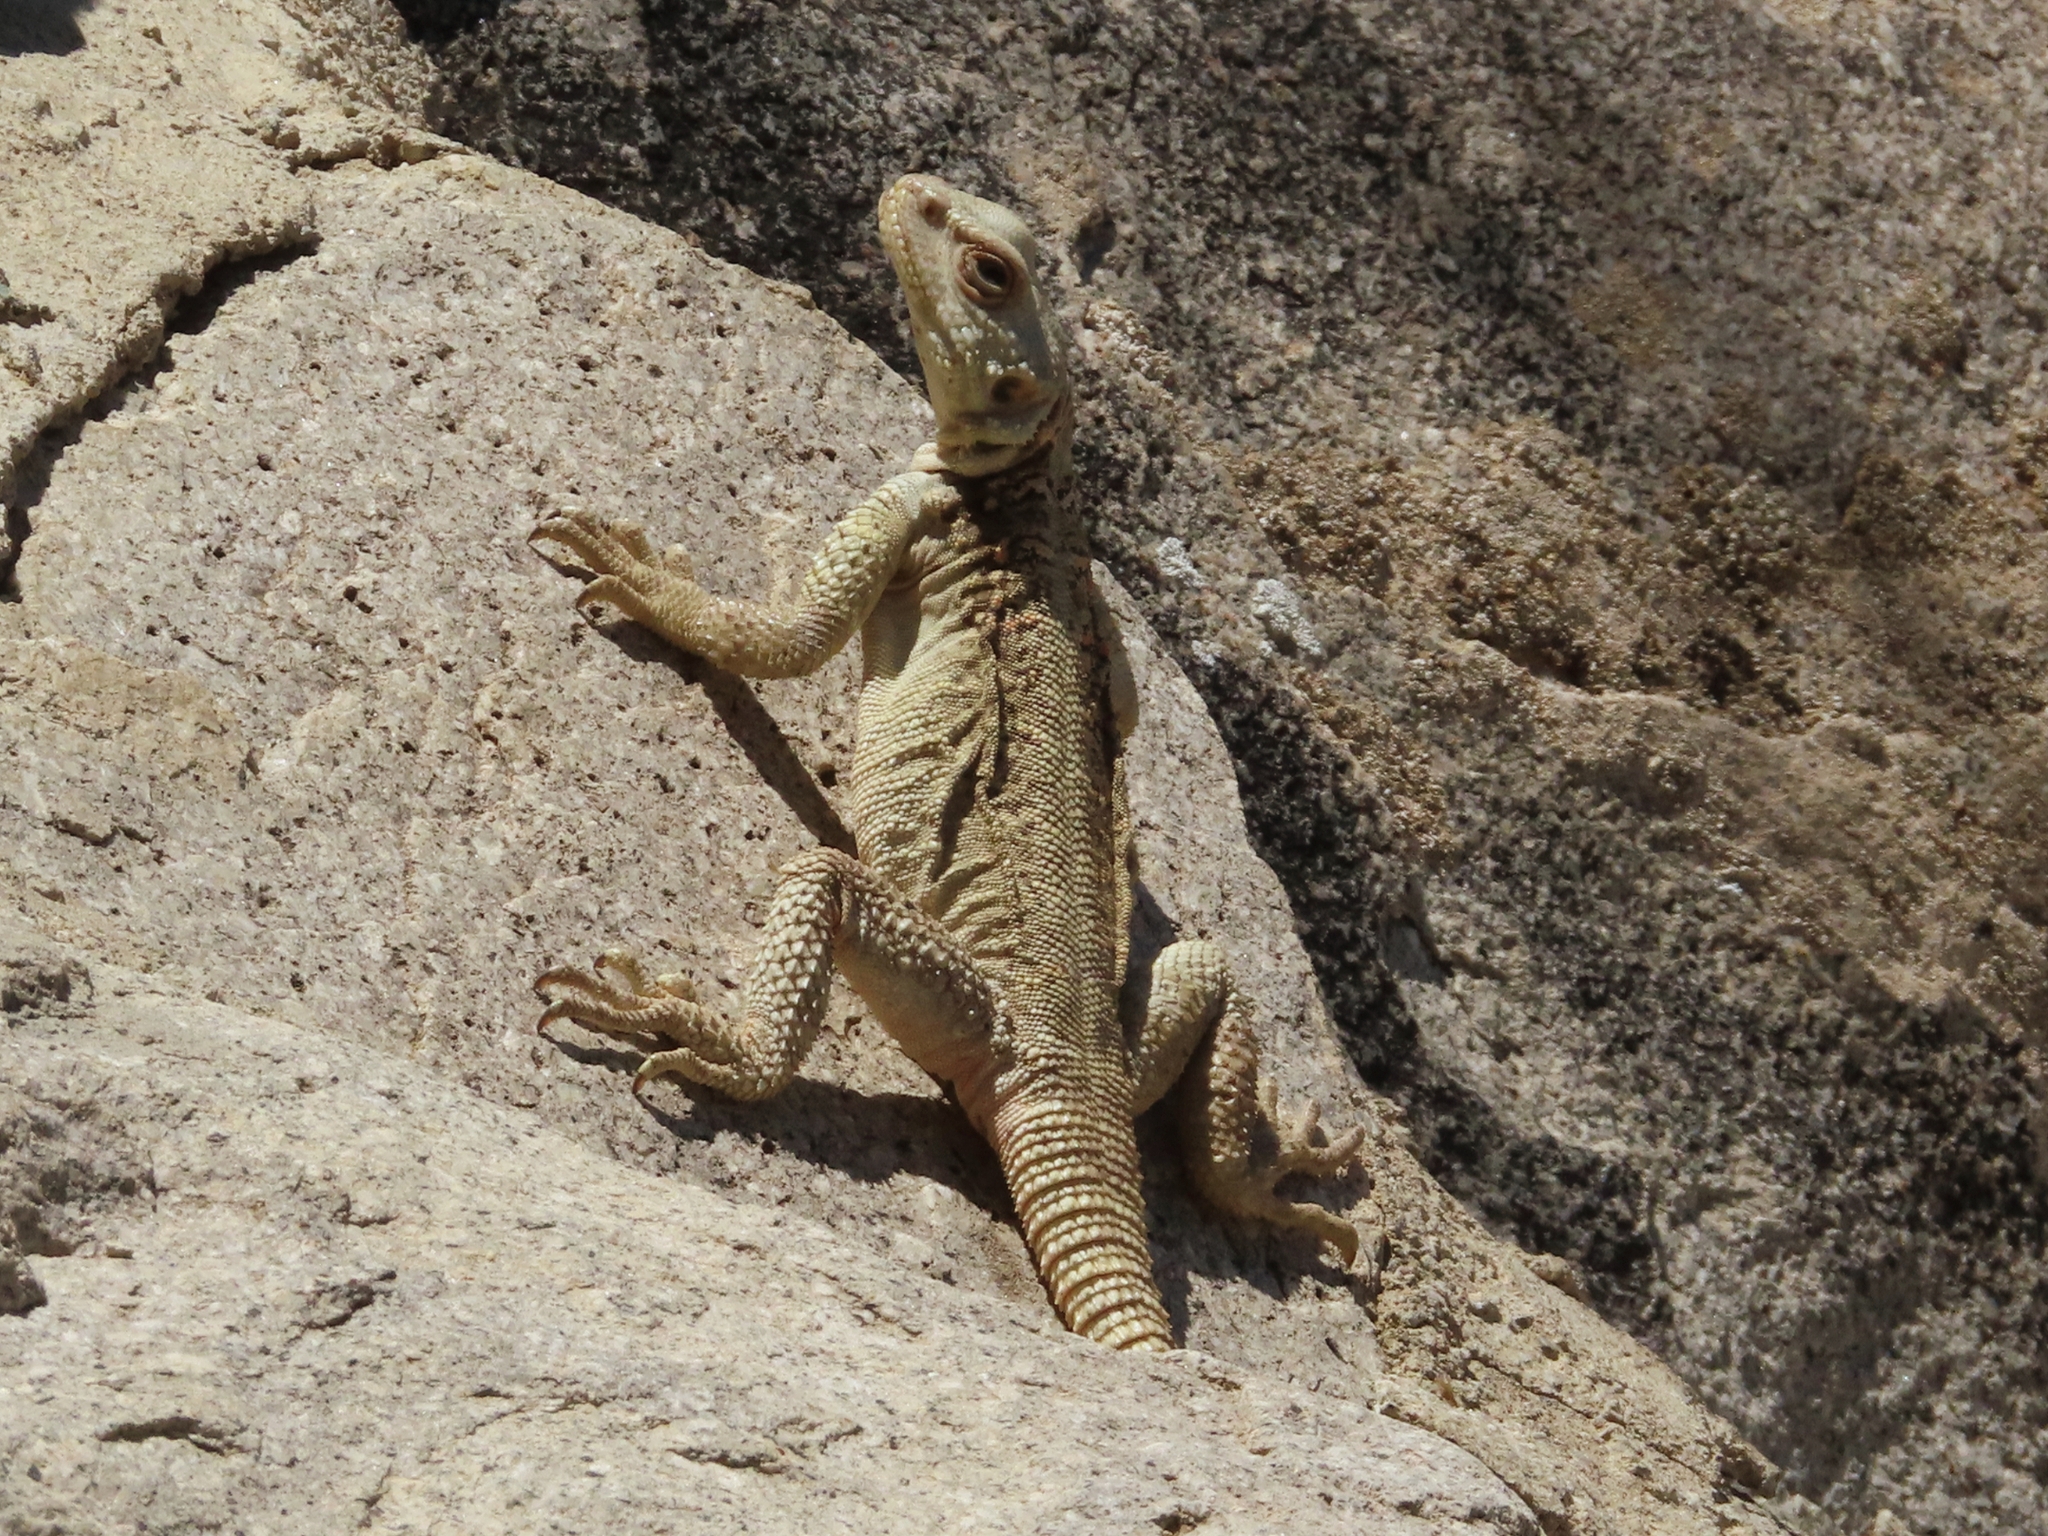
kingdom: Animalia
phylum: Chordata
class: Squamata
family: Agamidae
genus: Paralaudakia
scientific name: Paralaudakia caucasia
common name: Caucasian agama
